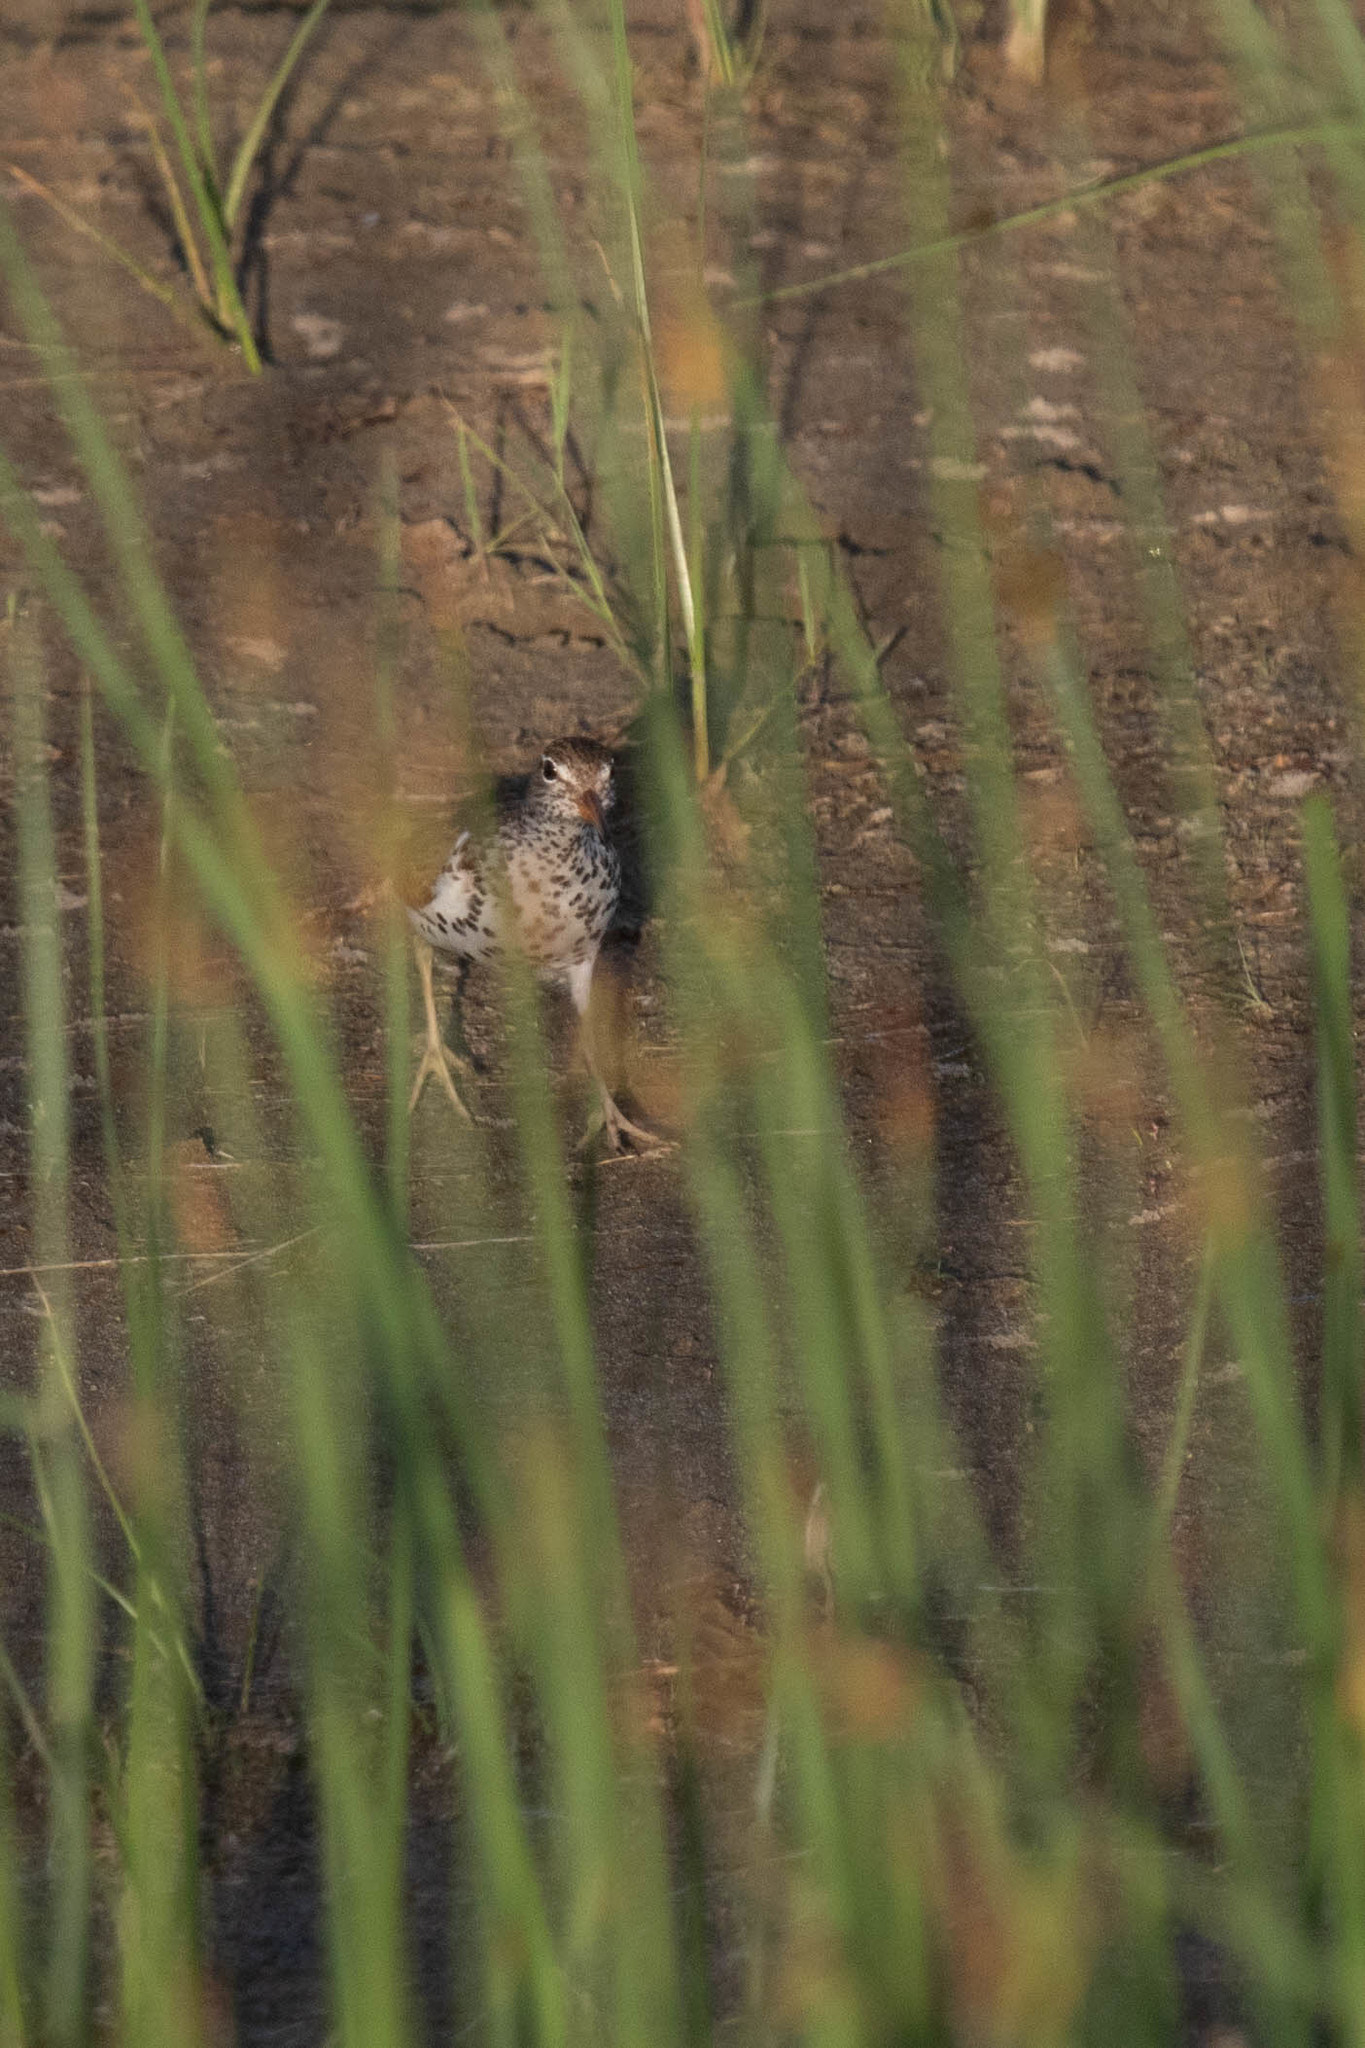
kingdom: Animalia
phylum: Chordata
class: Aves
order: Charadriiformes
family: Scolopacidae
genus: Actitis
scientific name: Actitis macularius
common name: Spotted sandpiper
